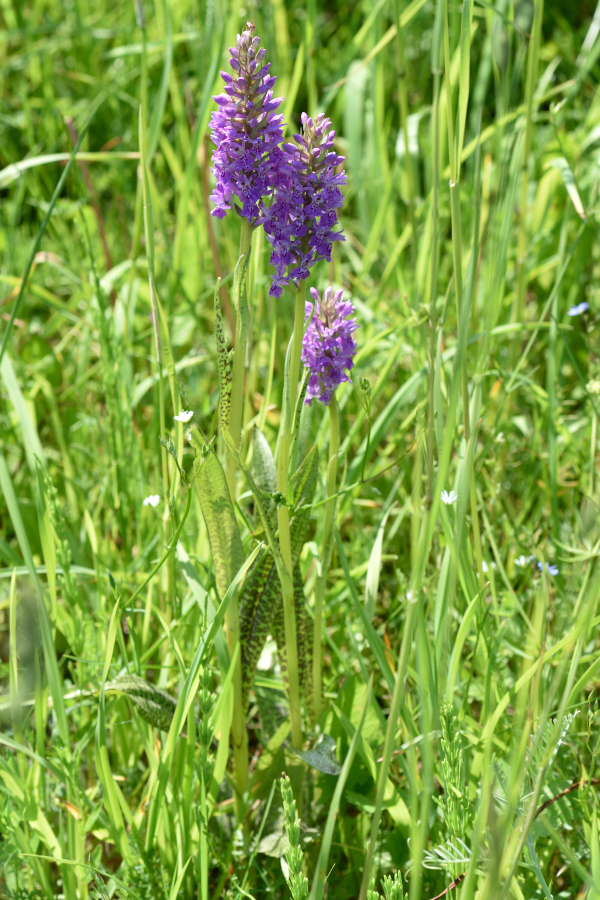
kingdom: Plantae
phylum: Tracheophyta
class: Liliopsida
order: Asparagales
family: Orchidaceae
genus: Dactylorhiza
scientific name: Dactylorhiza majalis
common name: Marsh orchid
